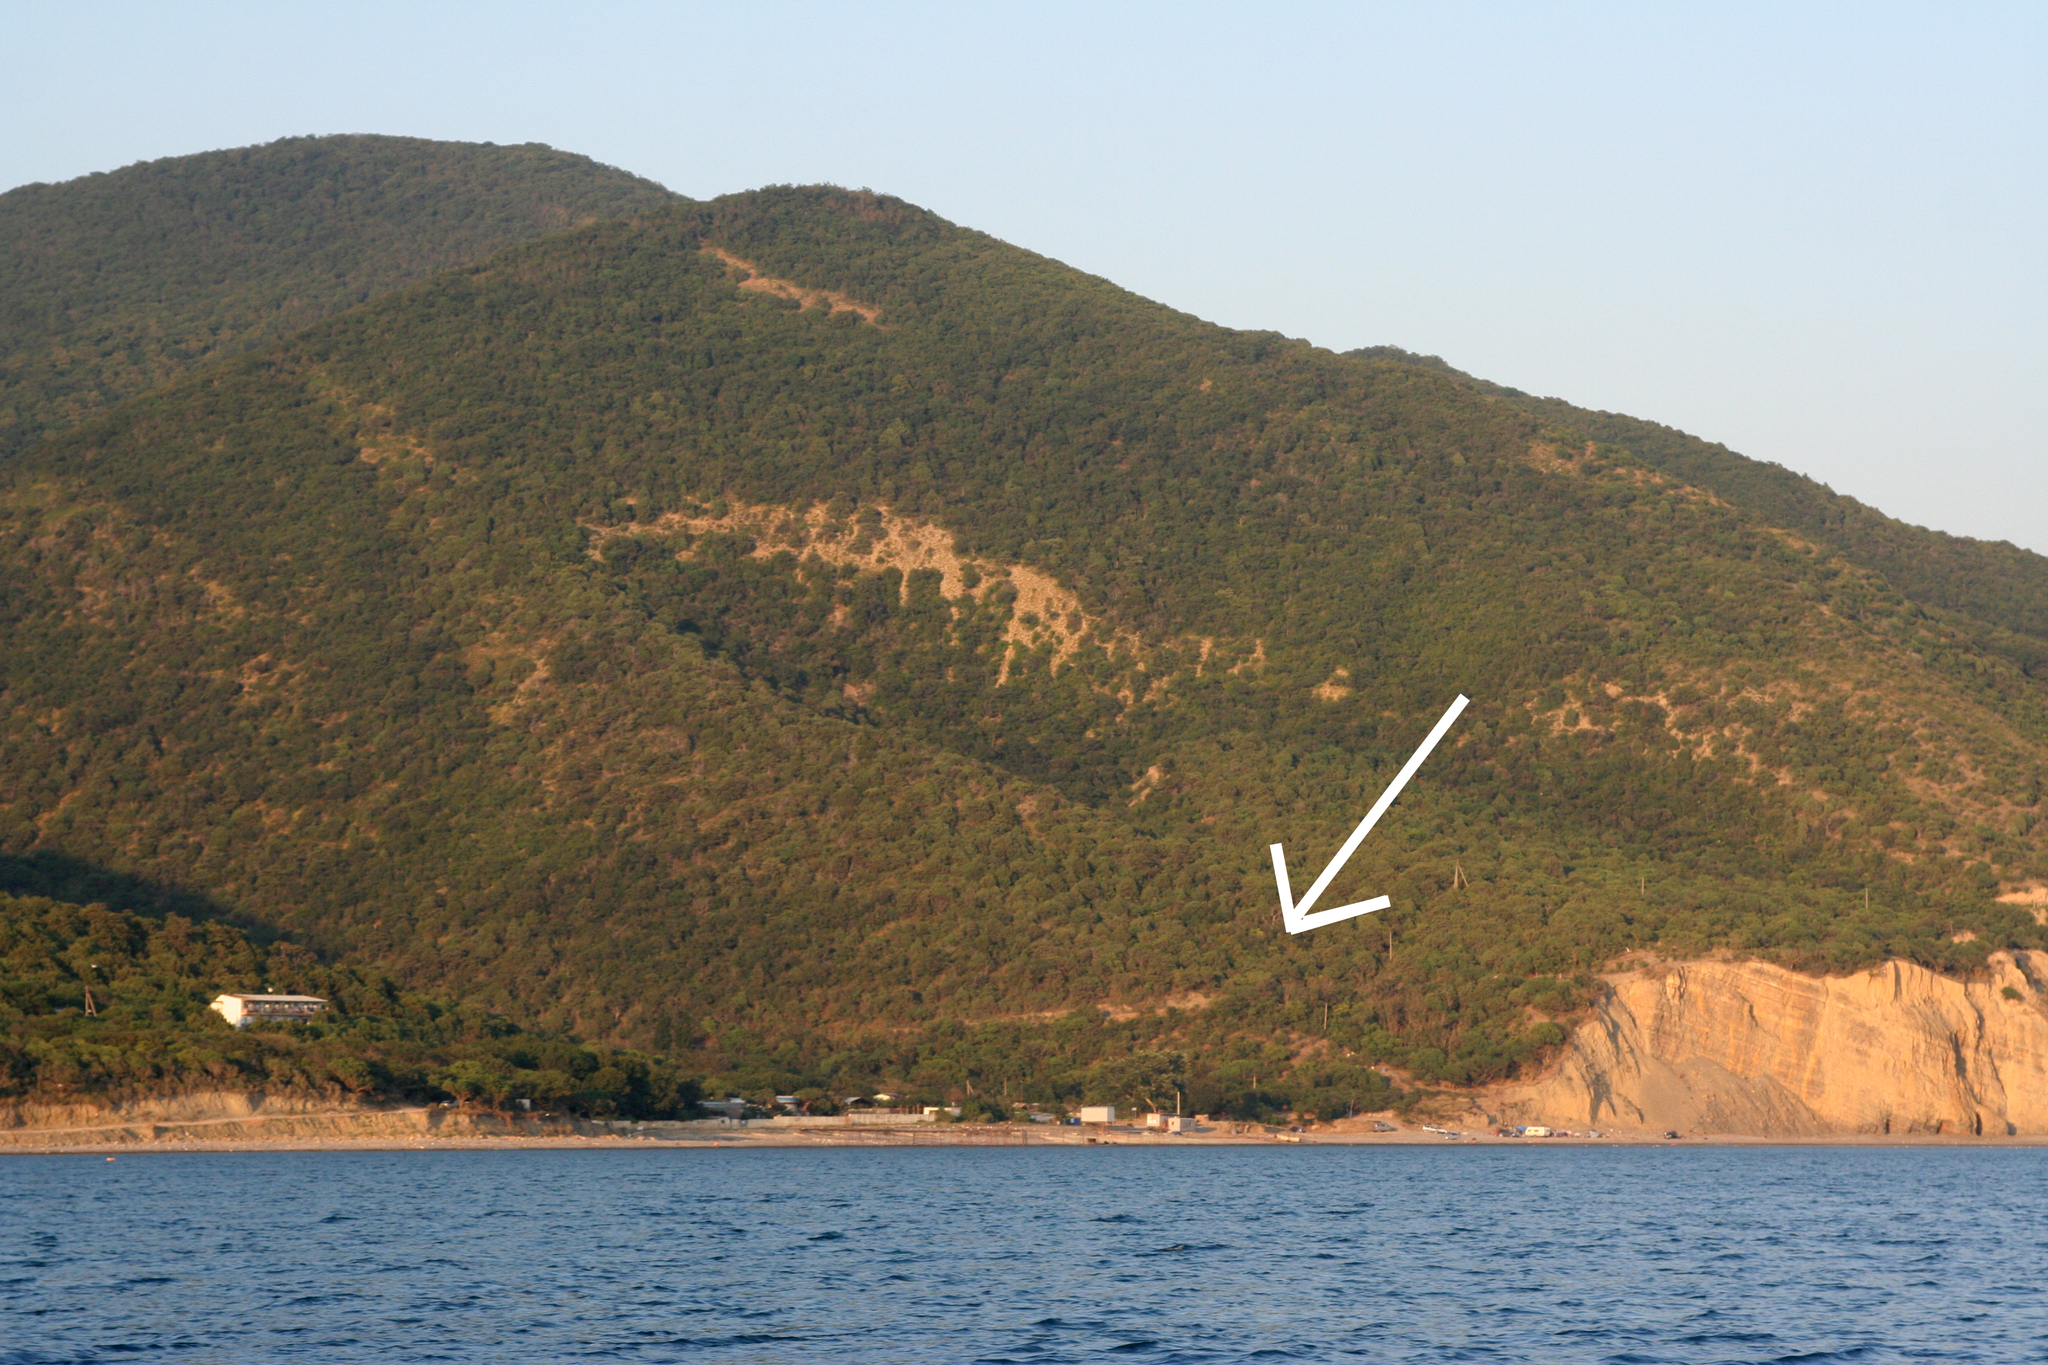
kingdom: Plantae
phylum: Tracheophyta
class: Magnoliopsida
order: Fabales
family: Fabaceae
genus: Lathyrus
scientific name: Lathyrus oleraceus
